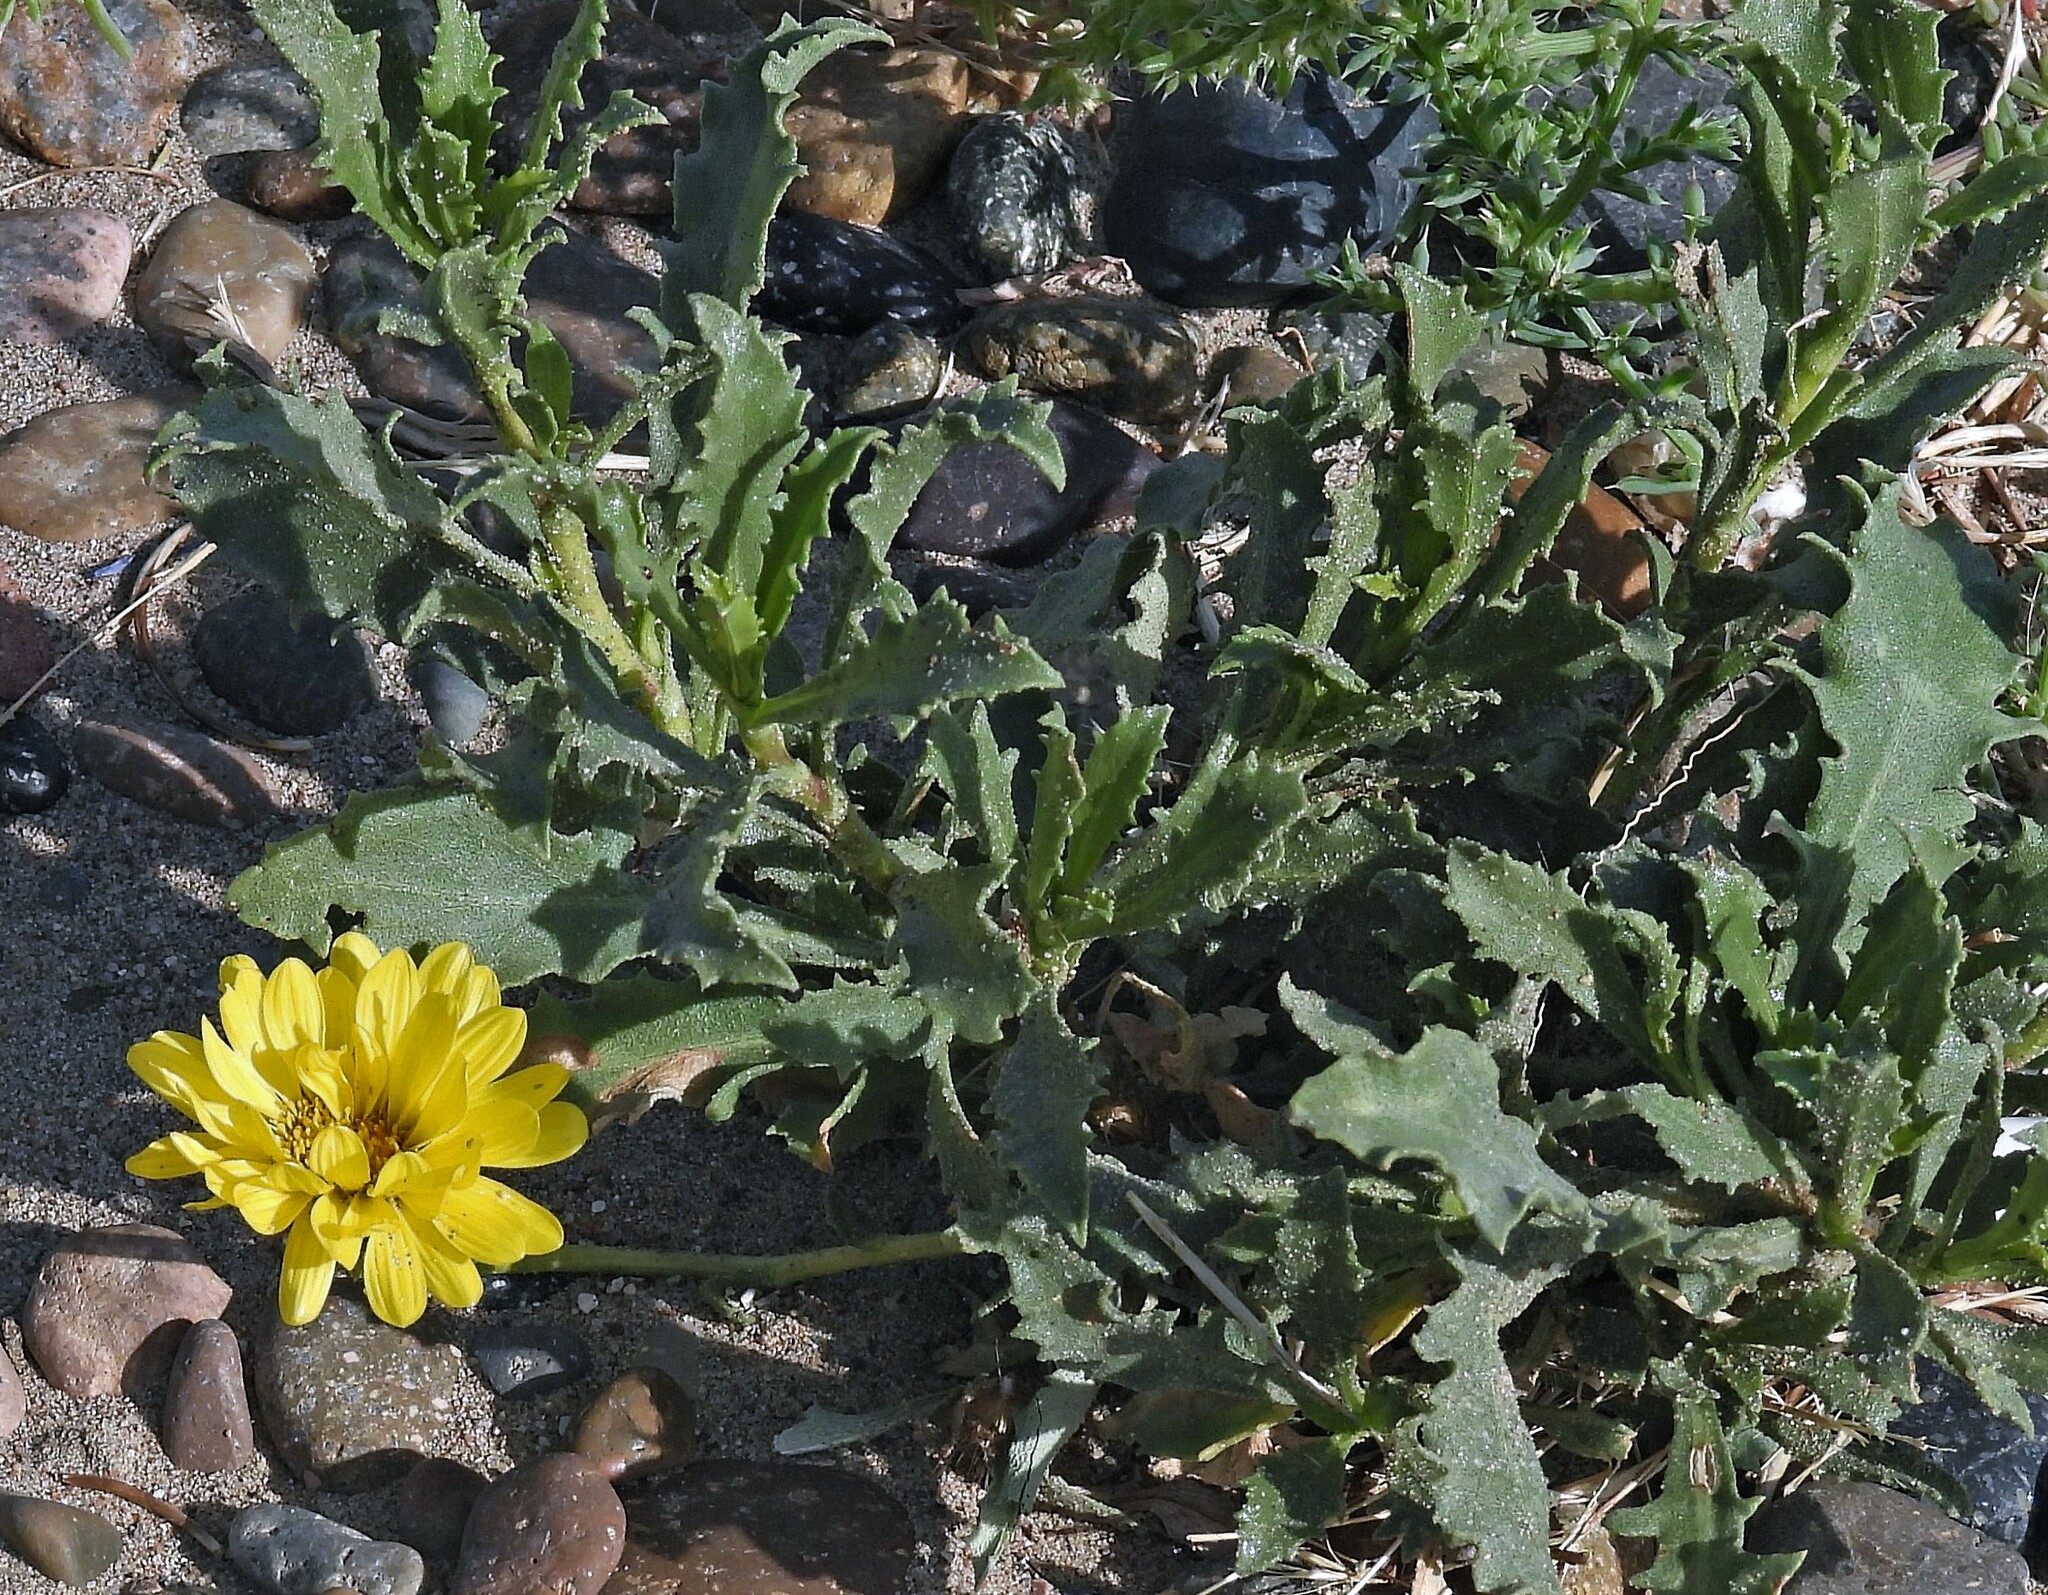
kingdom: Plantae
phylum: Tracheophyta
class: Magnoliopsida
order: Asterales
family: Asteraceae
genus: Grindelia
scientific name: Grindelia chiloensis
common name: Shrubby gumweed
